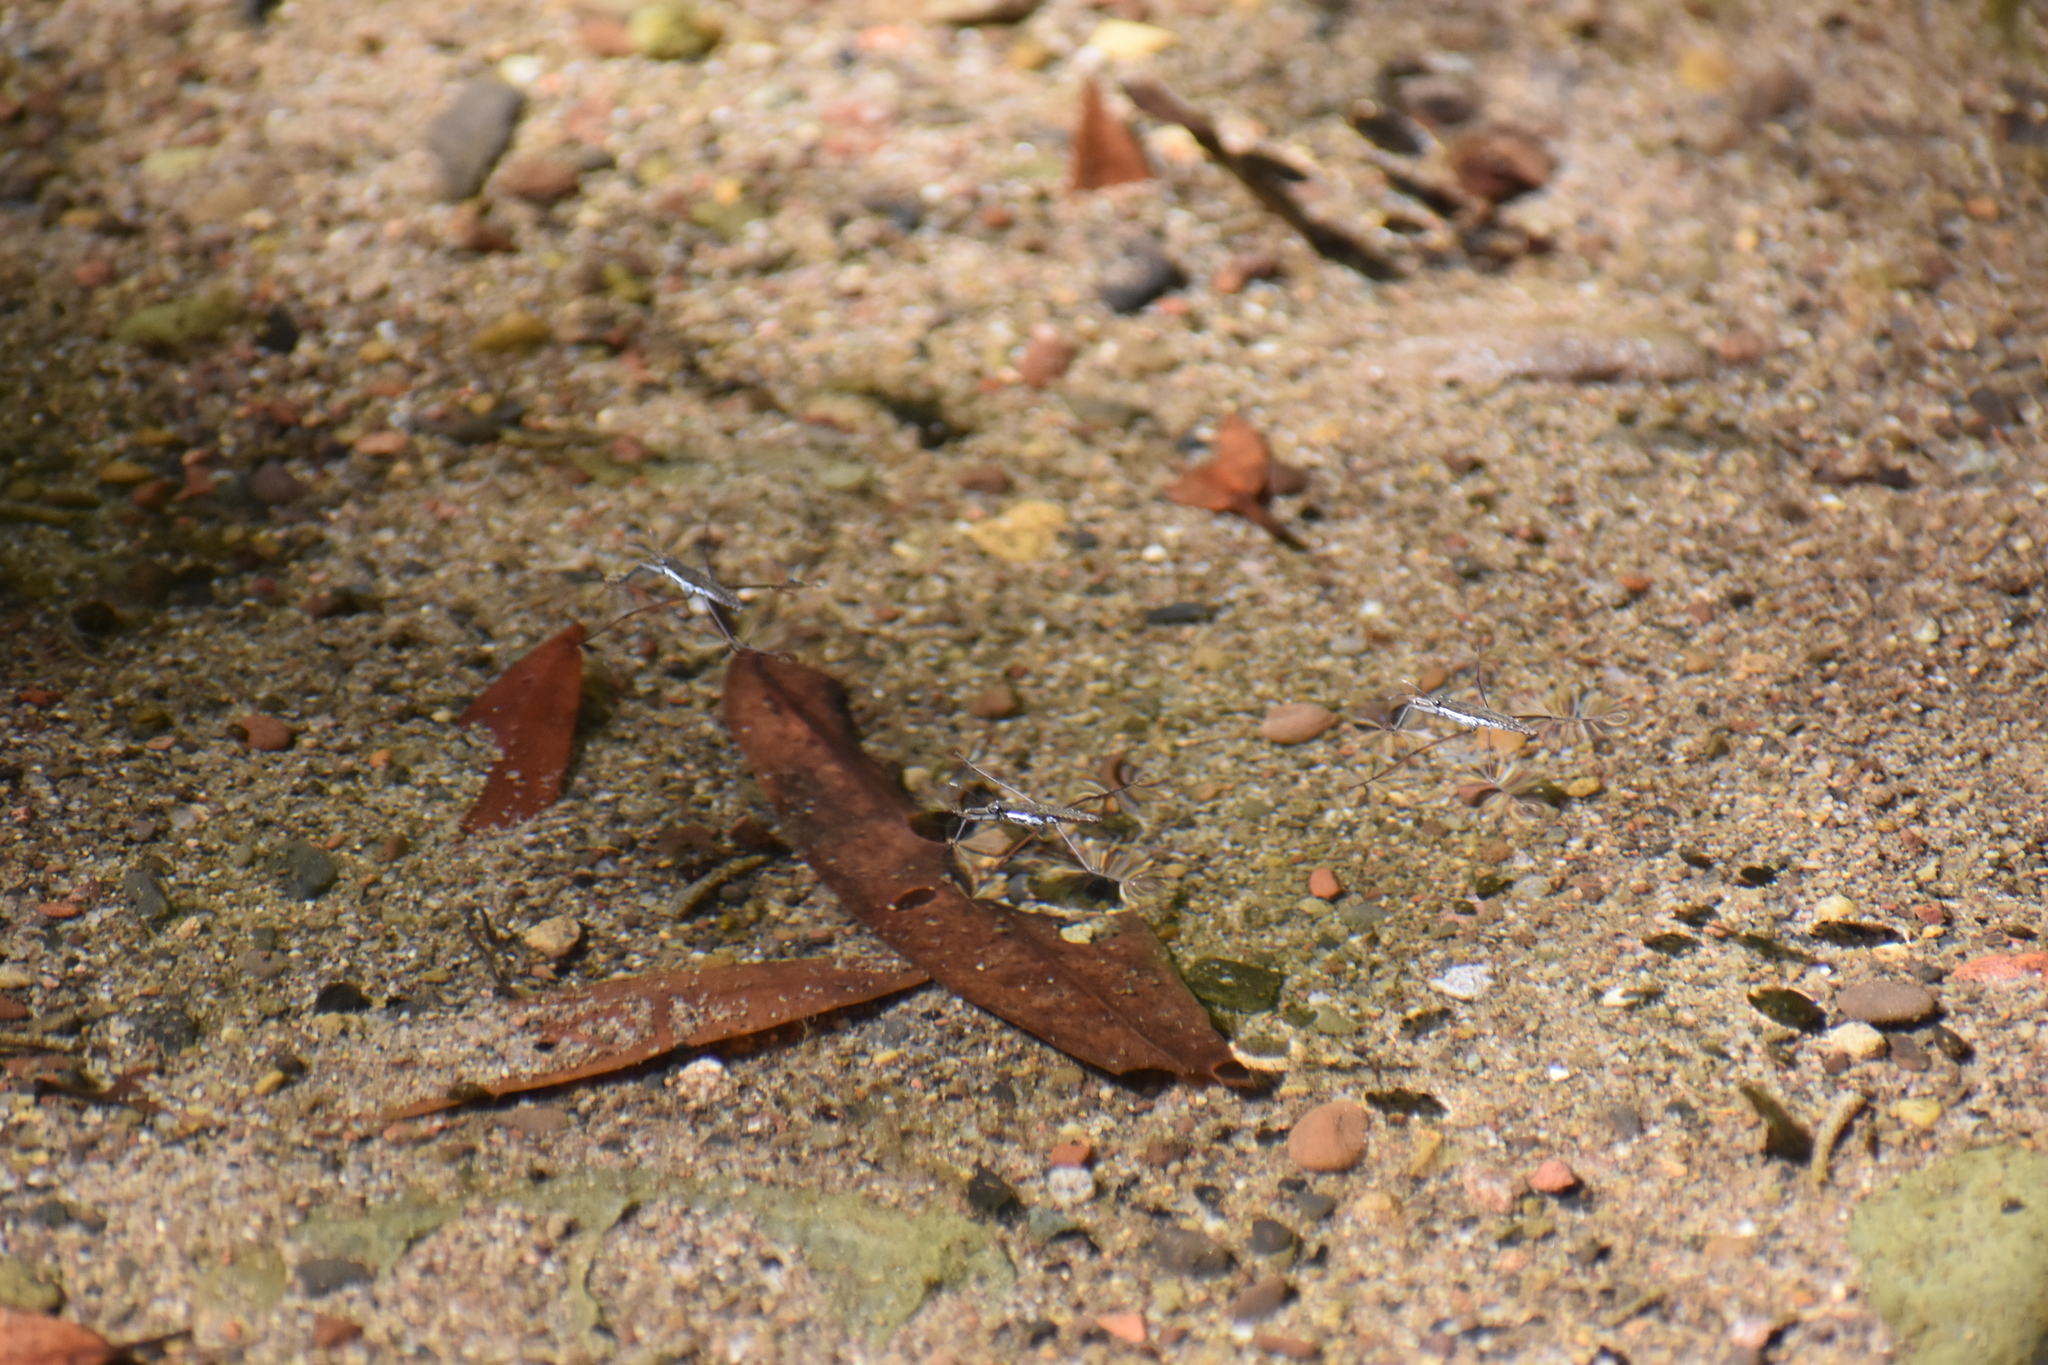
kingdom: Animalia
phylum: Arthropoda
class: Insecta
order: Hemiptera
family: Gerridae
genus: Aquarius
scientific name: Aquarius remigis
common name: Common water strider
